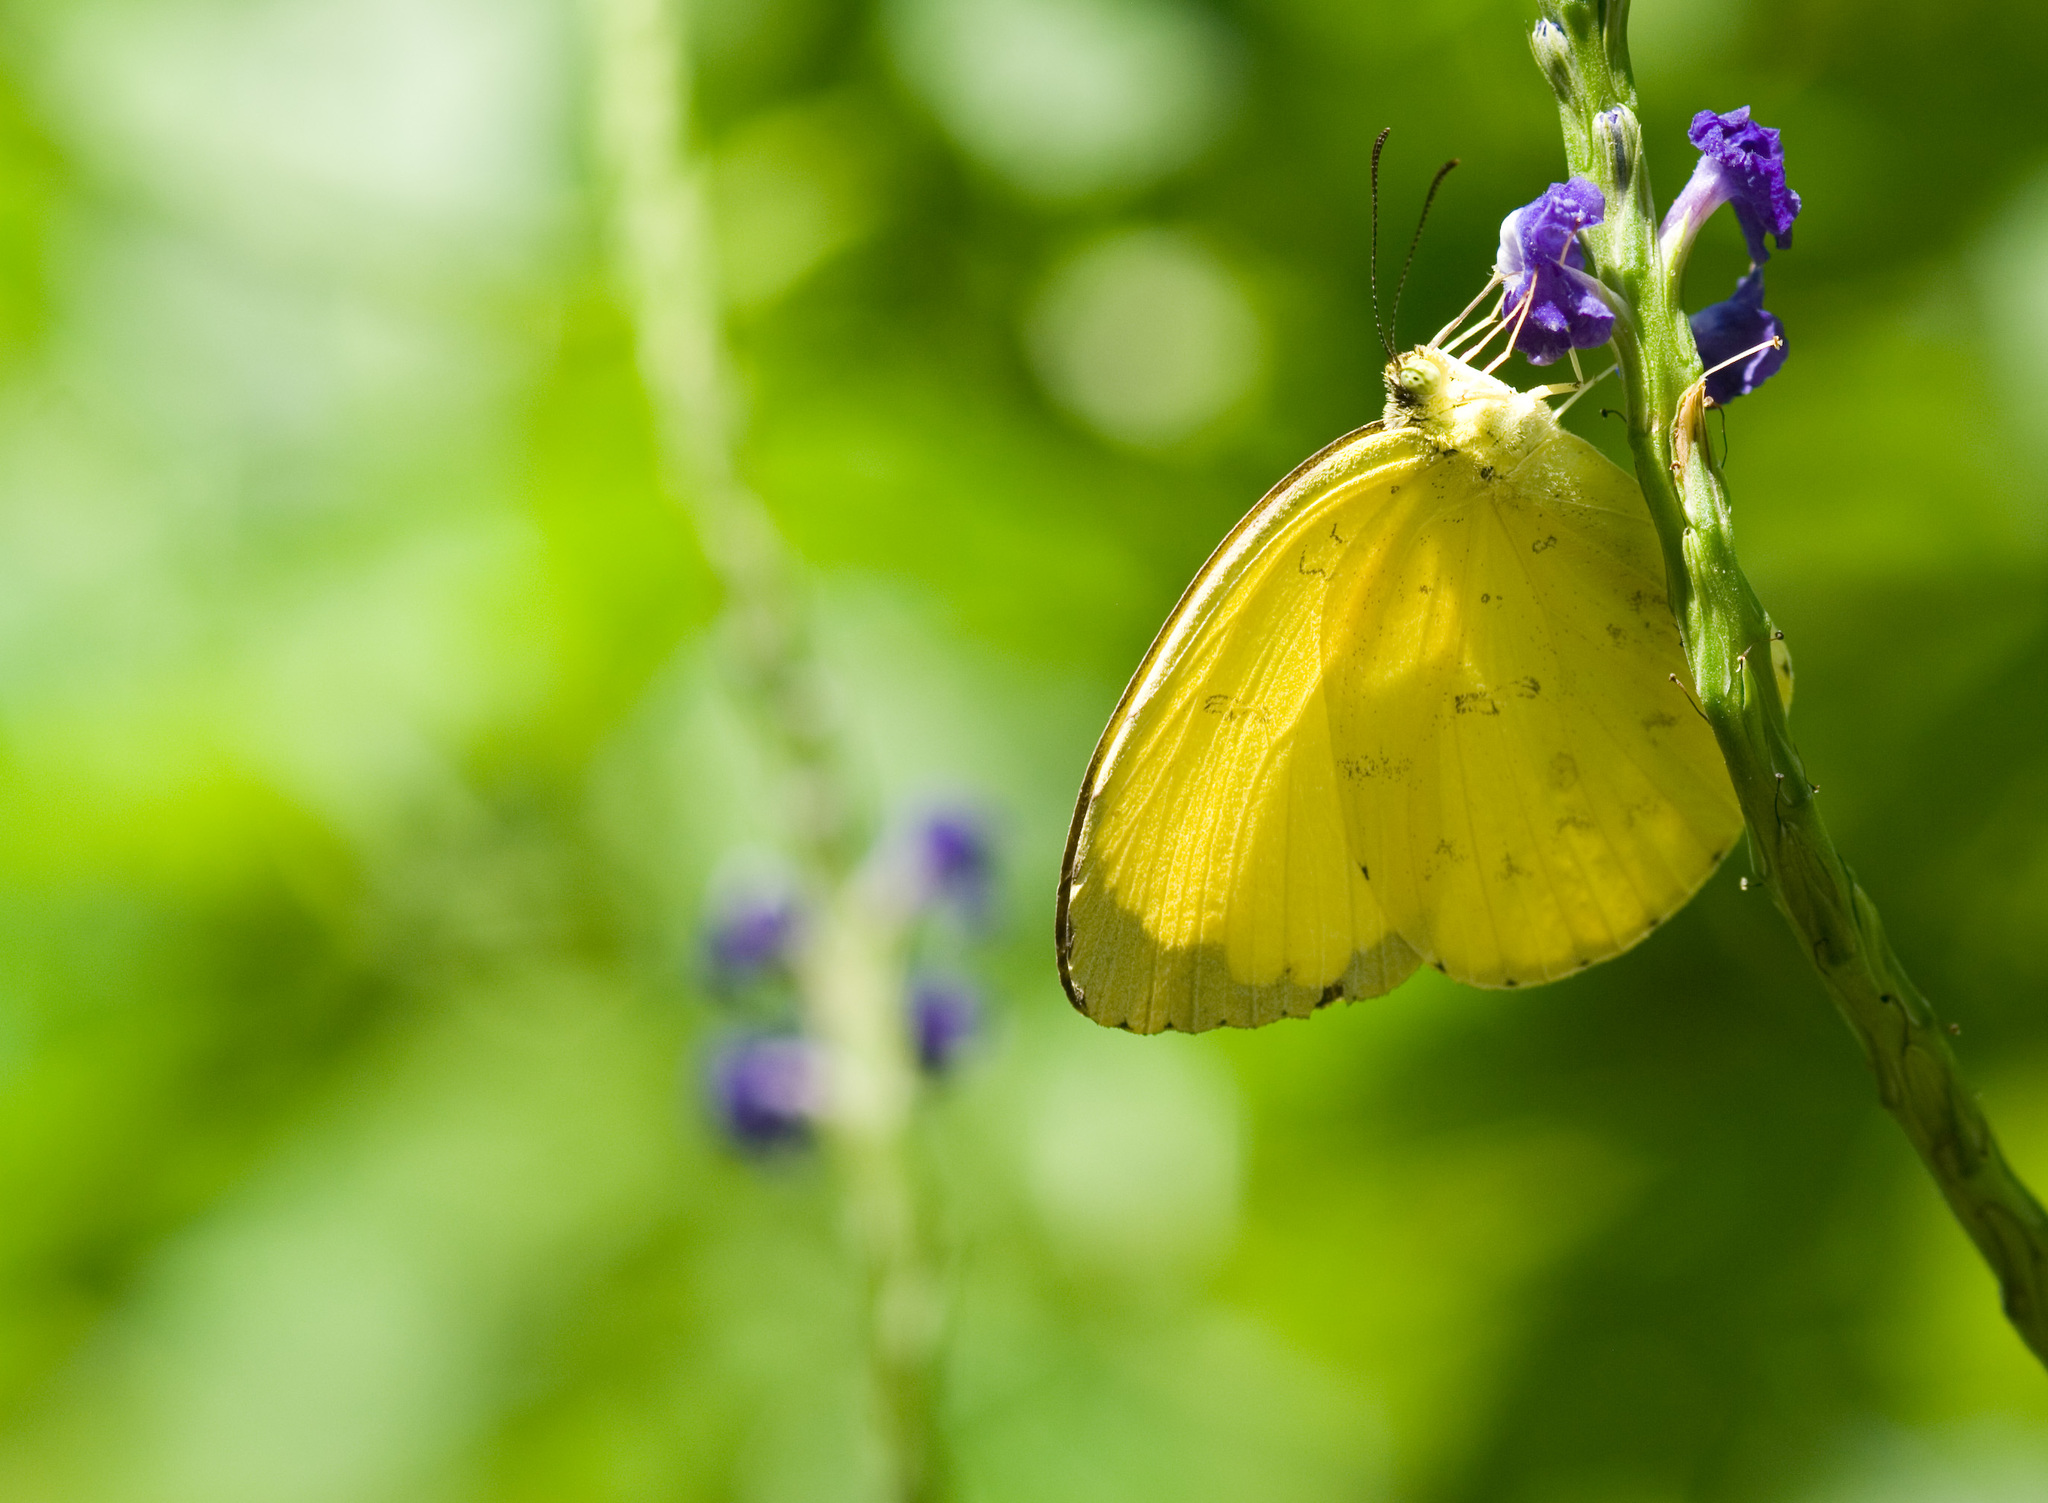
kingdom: Animalia
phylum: Arthropoda
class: Insecta
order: Lepidoptera
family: Pieridae
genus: Eurema
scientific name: Eurema blanda
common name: Three-spot grass yellow
